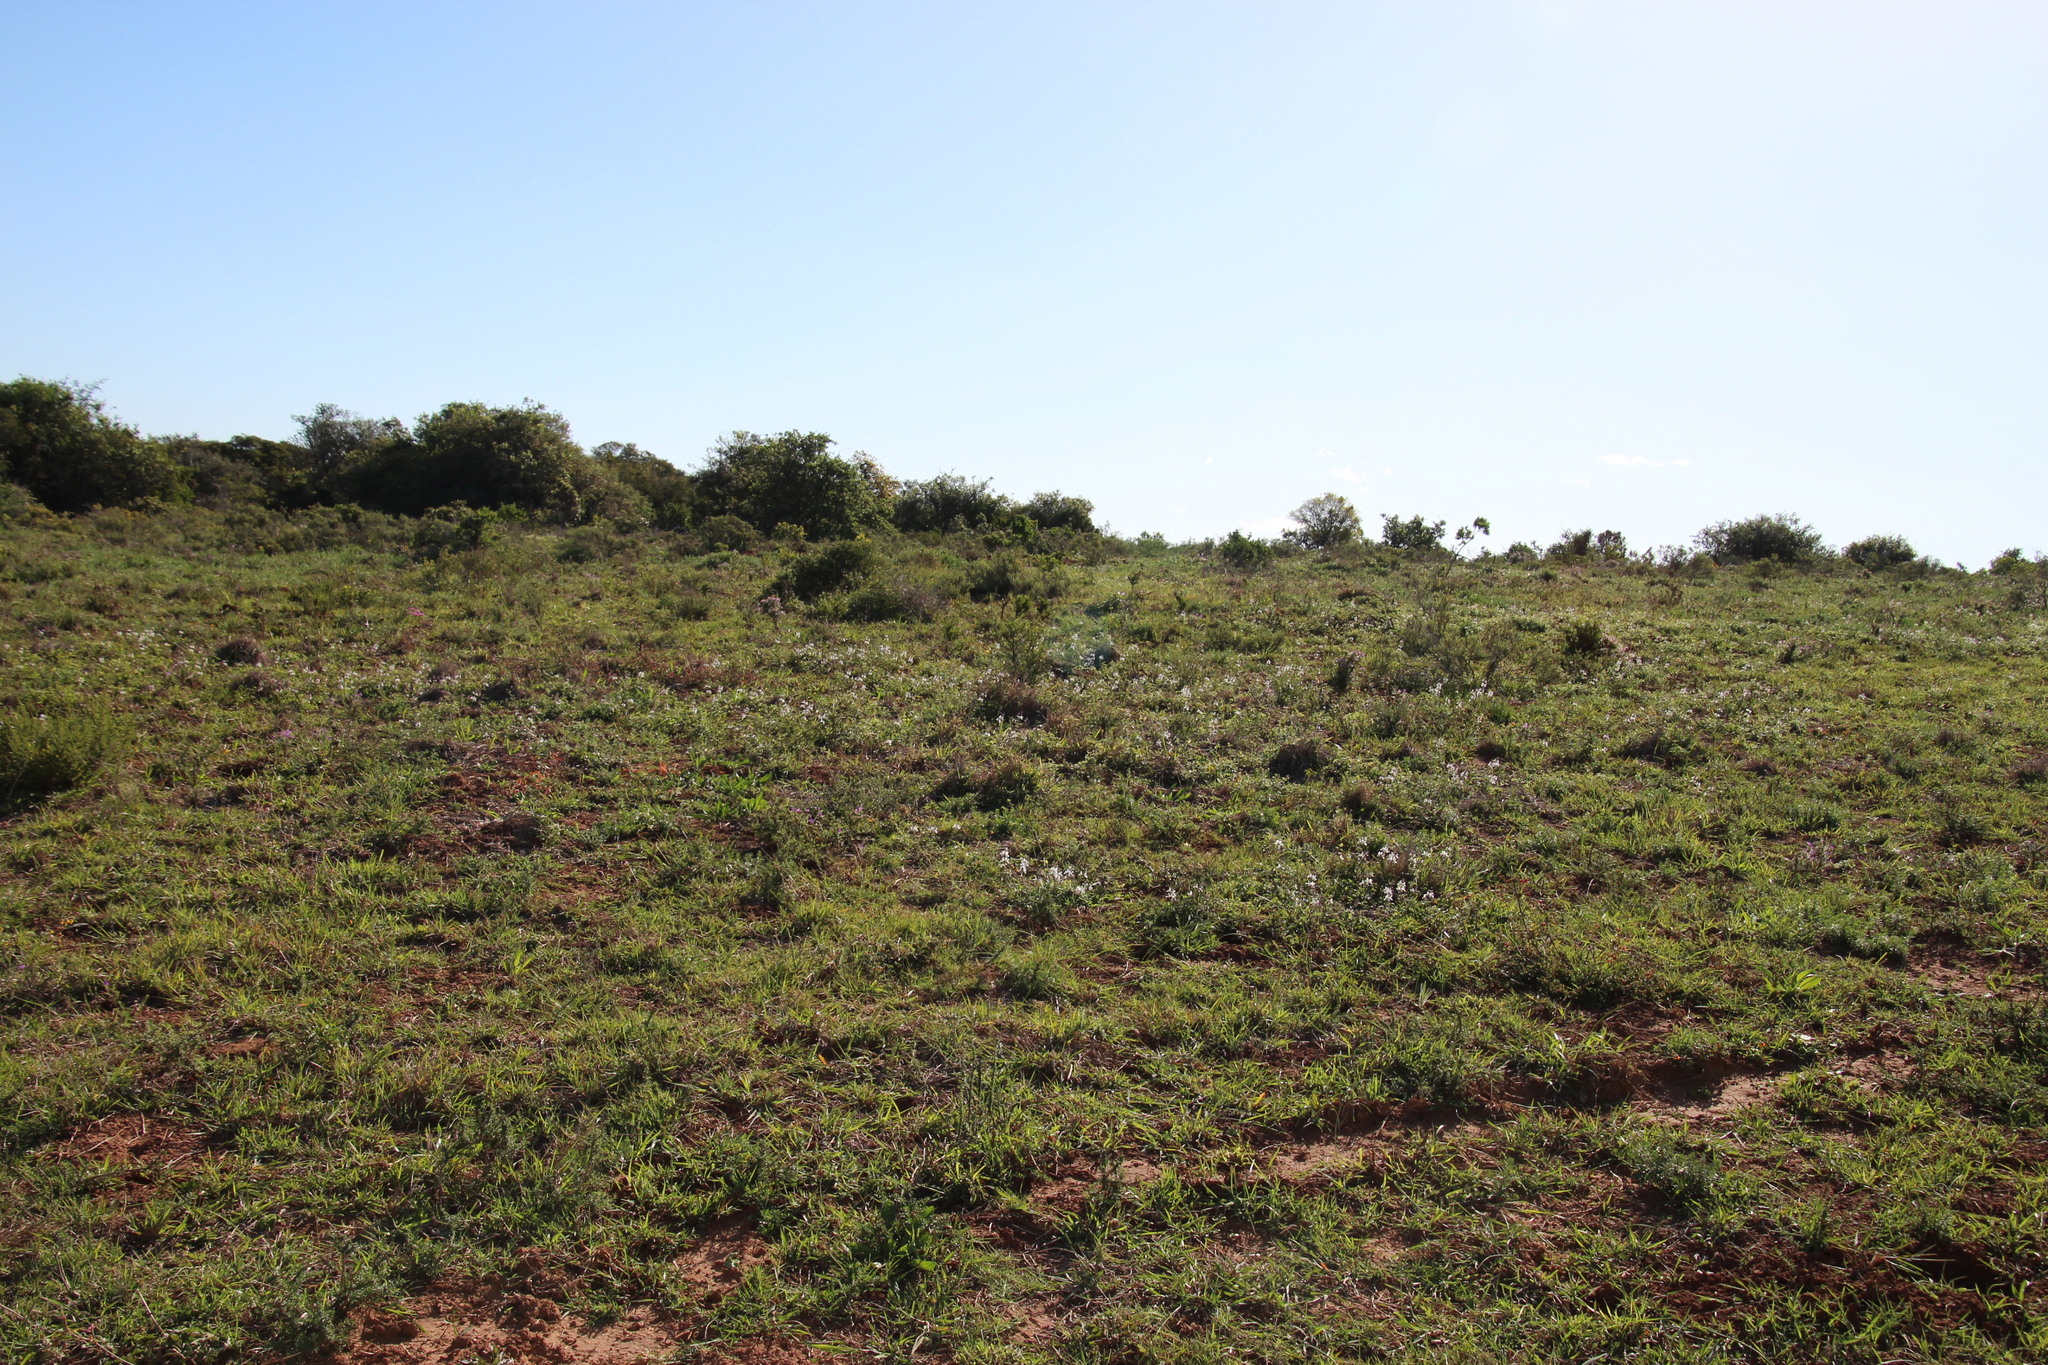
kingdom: Plantae
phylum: Tracheophyta
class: Magnoliopsida
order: Lamiales
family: Lamiaceae
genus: Stachys
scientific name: Stachys aethiopica
